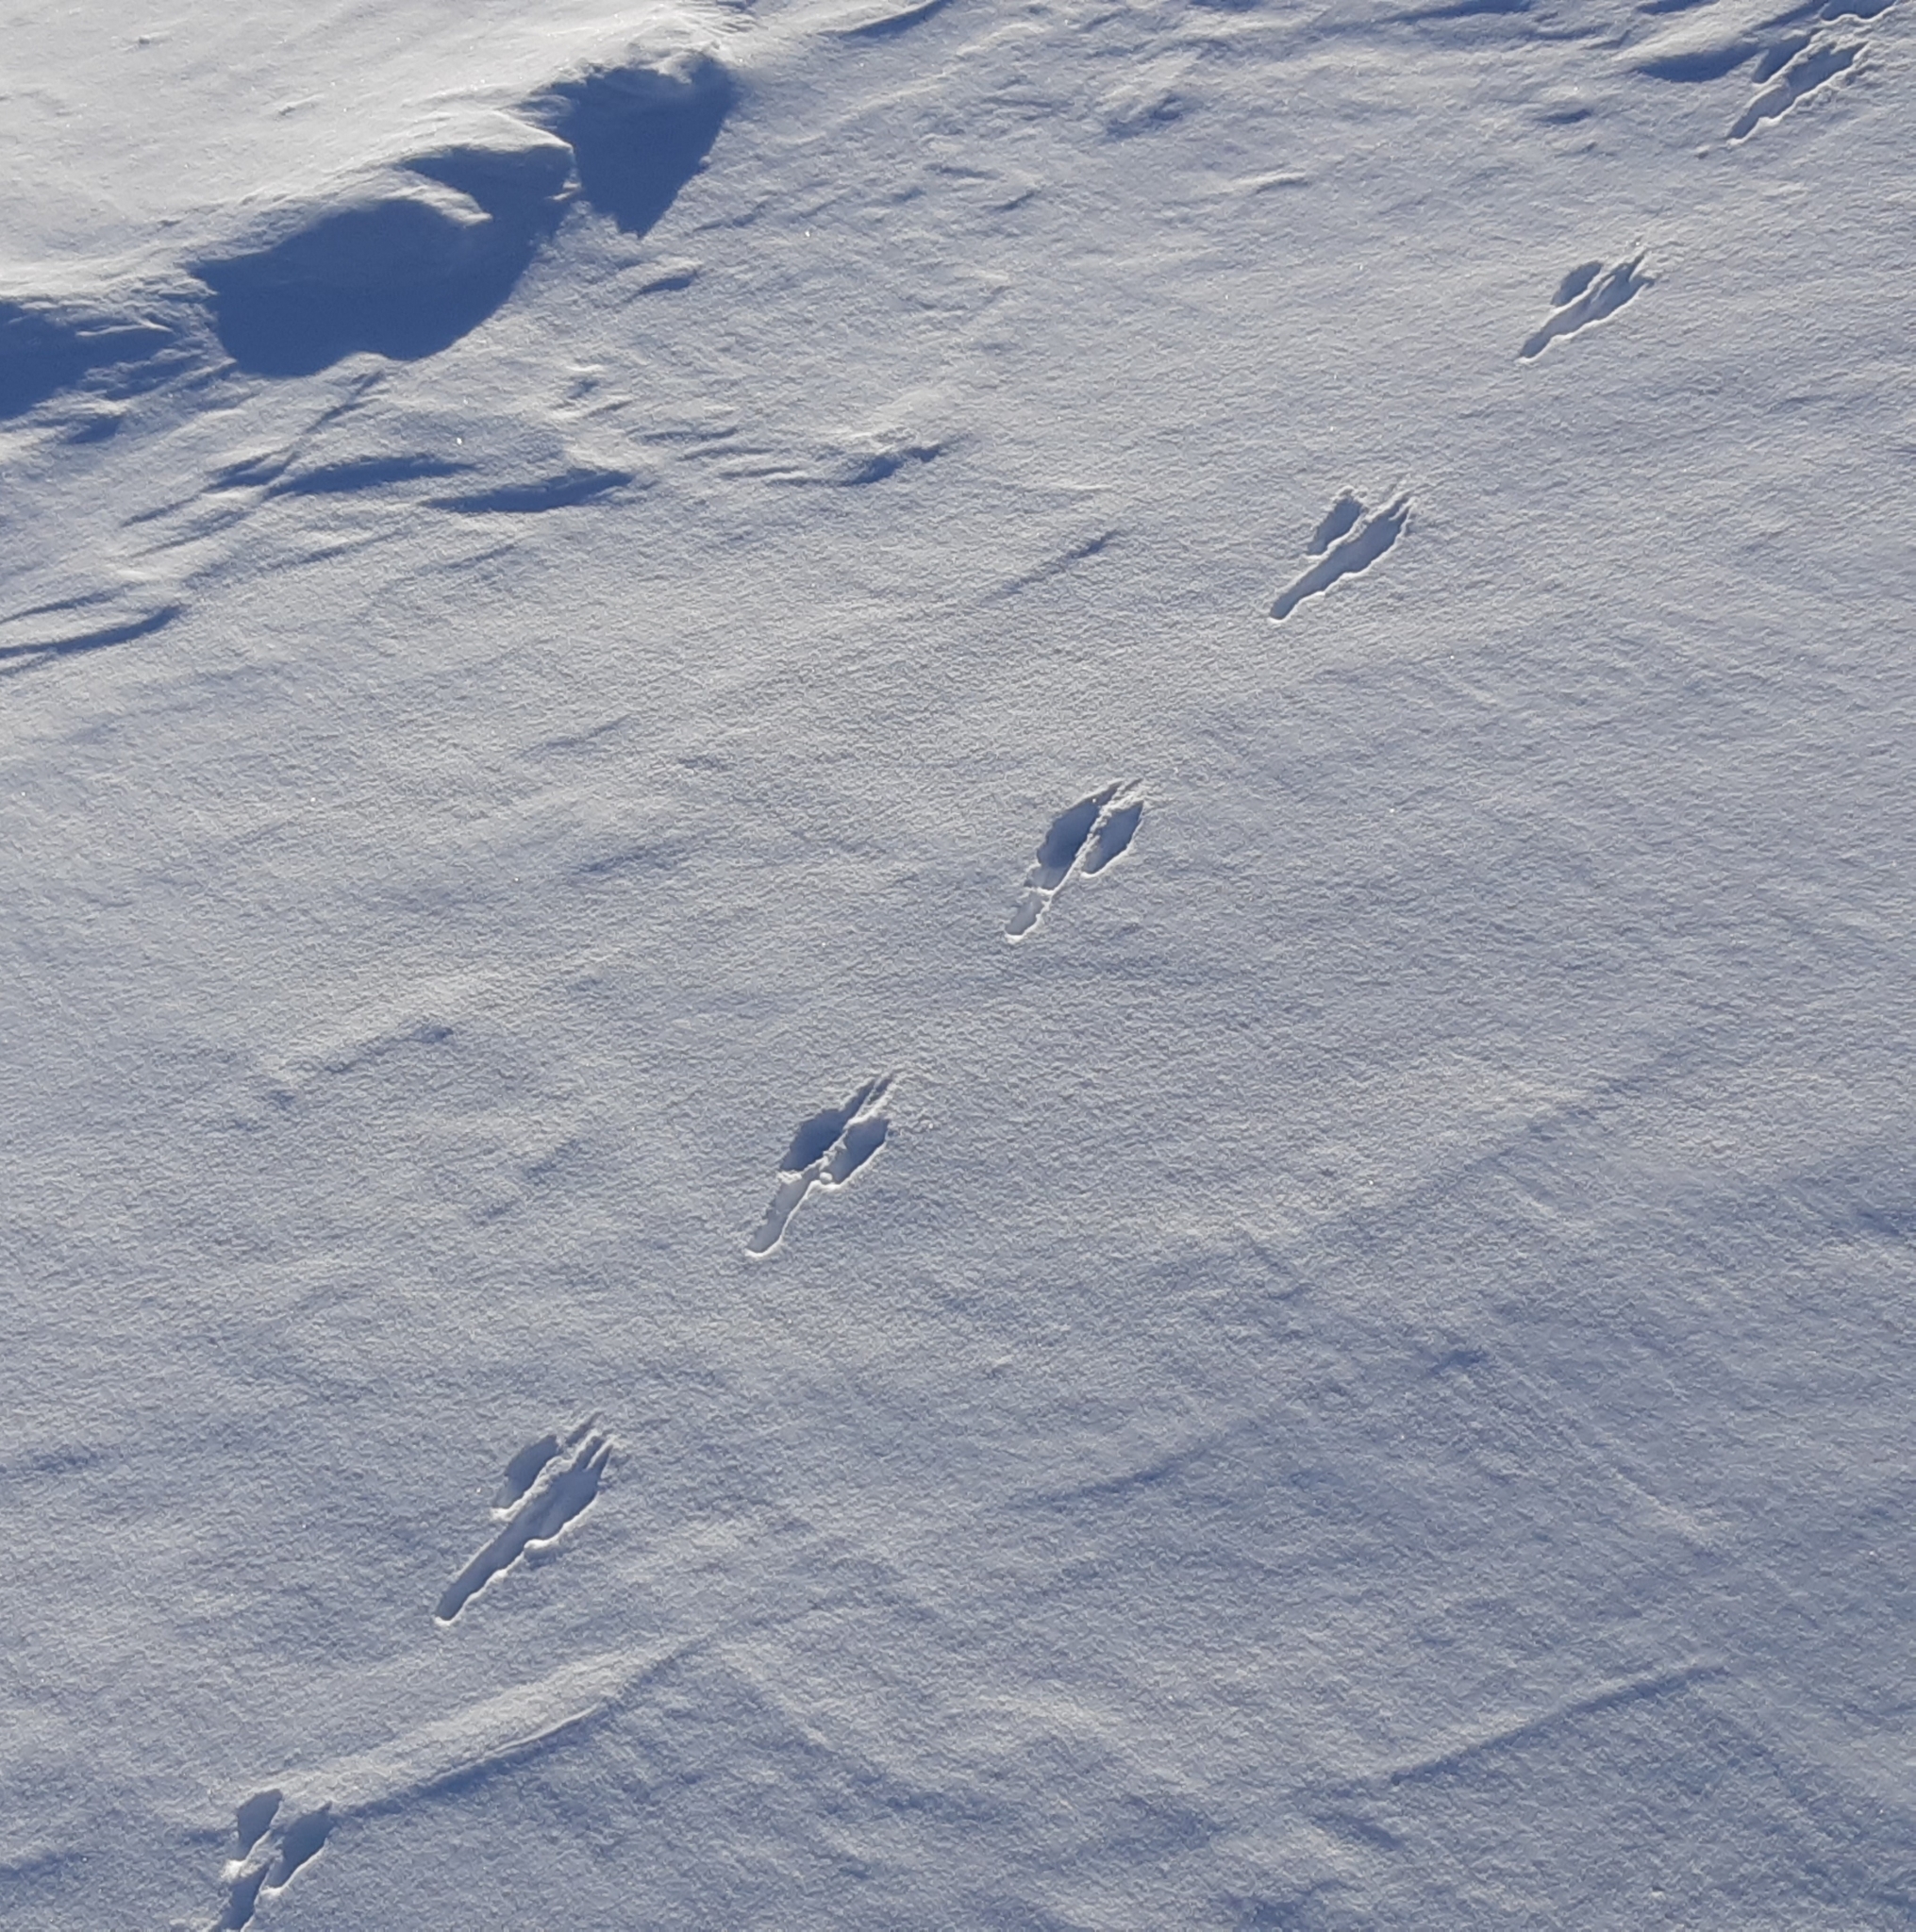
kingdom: Animalia
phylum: Chordata
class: Mammalia
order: Lagomorpha
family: Leporidae
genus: Lepus
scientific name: Lepus timidus
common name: Mountain hare
